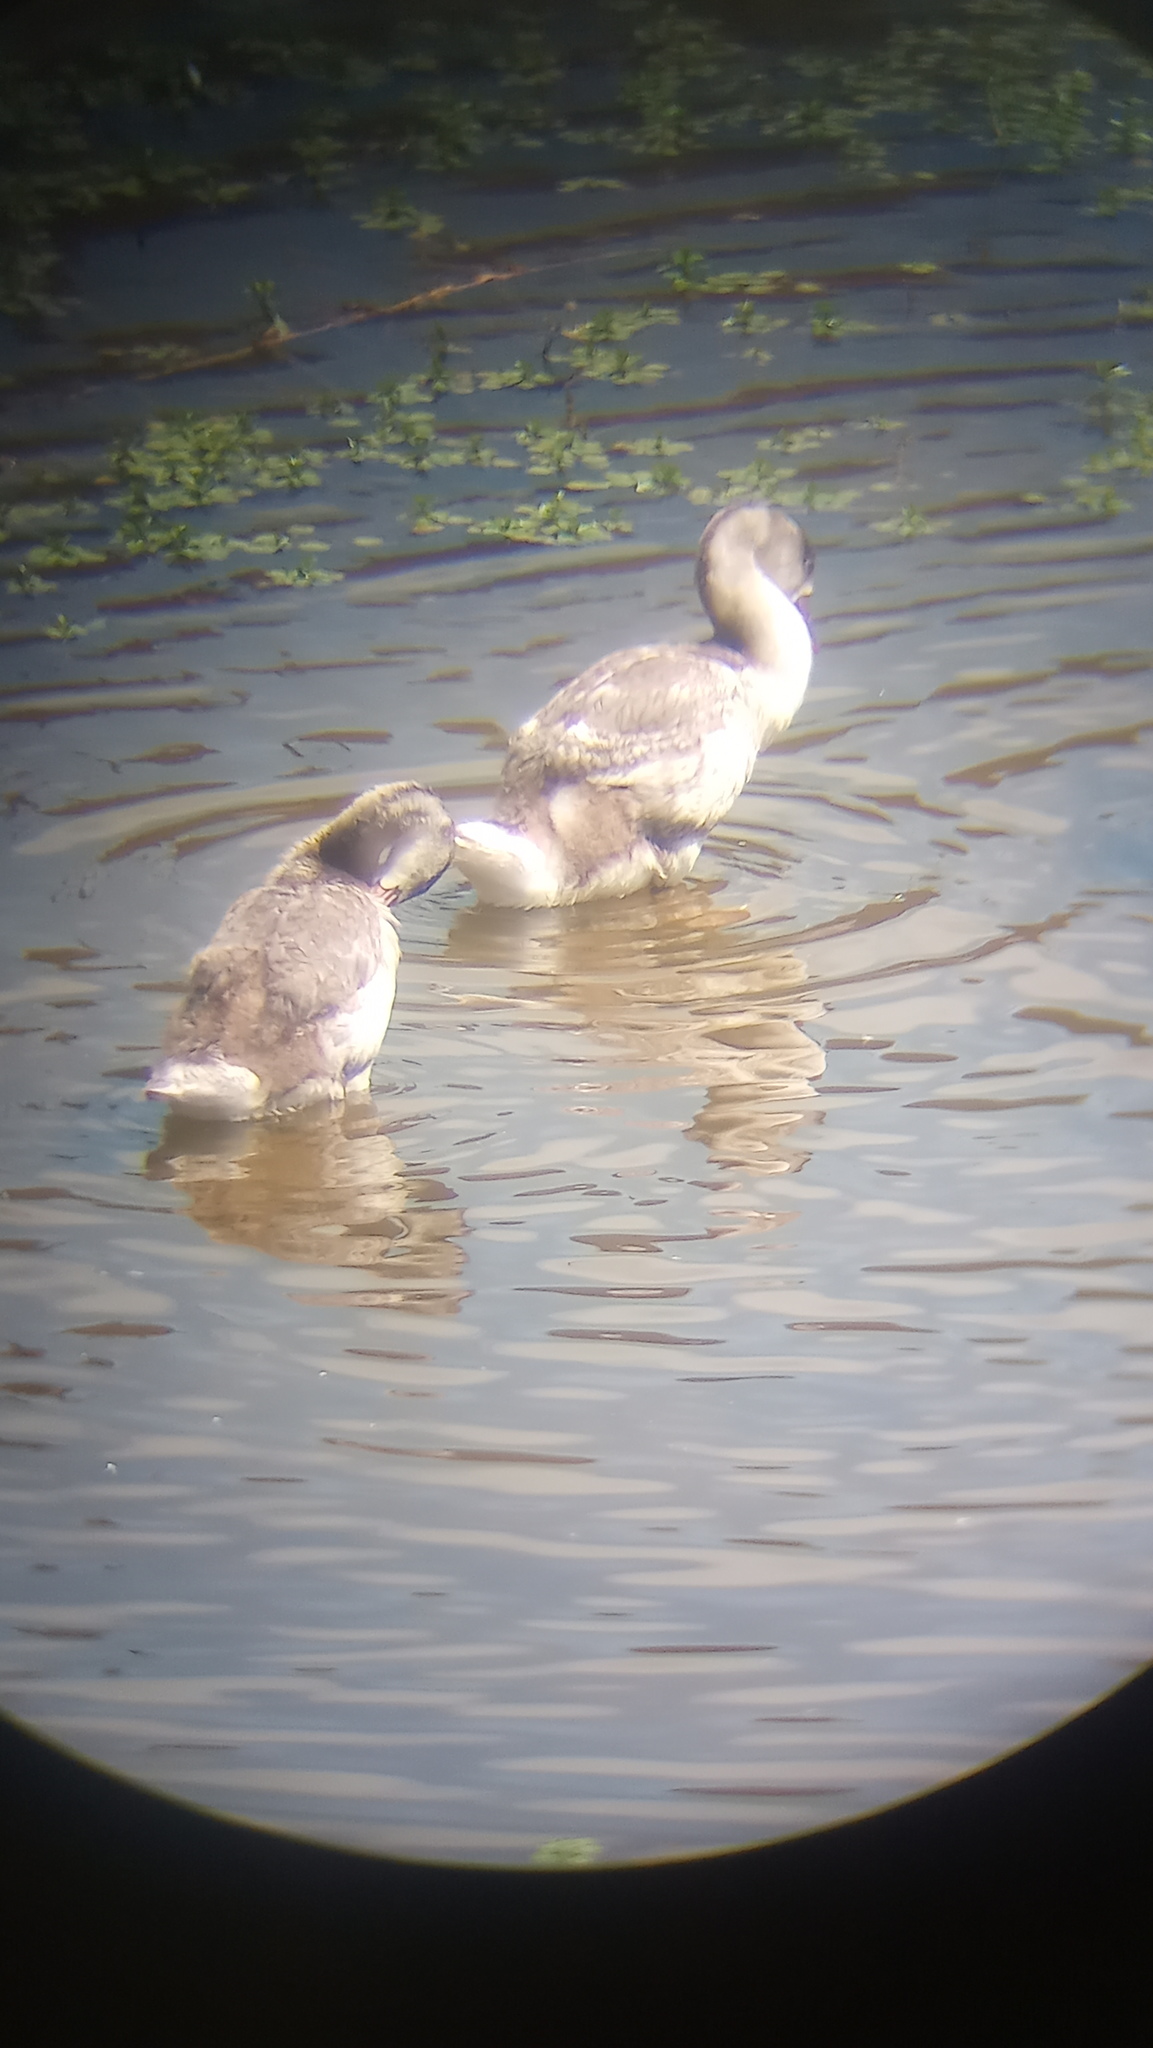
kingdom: Animalia
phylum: Chordata
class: Aves
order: Anseriformes
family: Anatidae
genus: Coscoroba
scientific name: Coscoroba coscoroba
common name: Coscoroba swan
